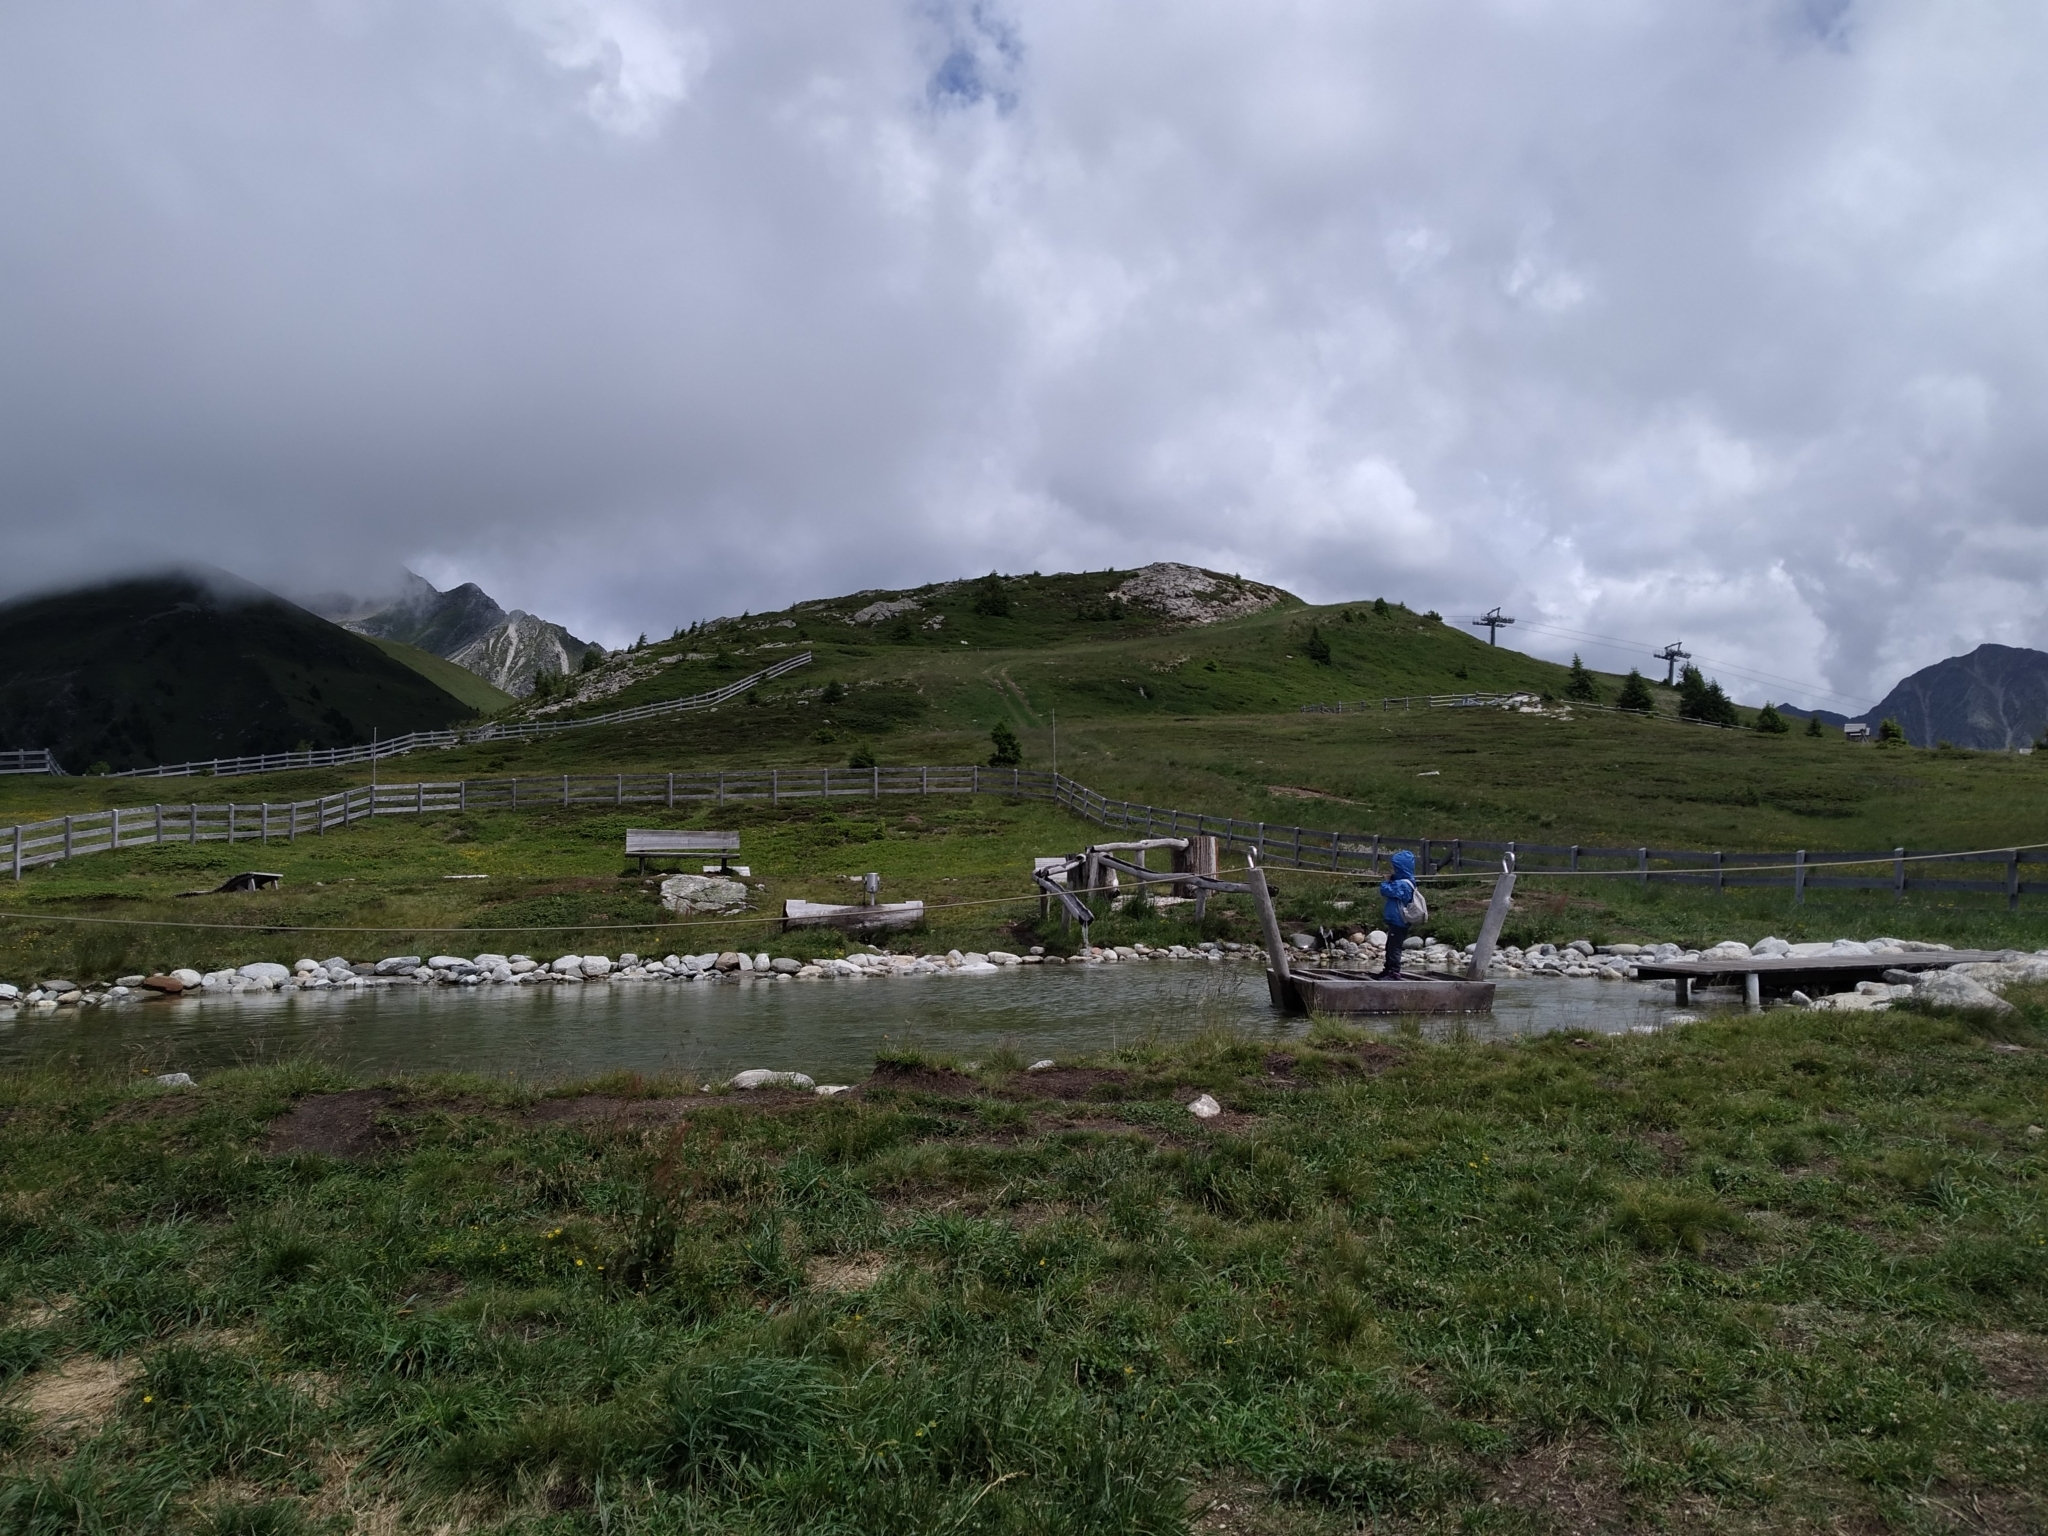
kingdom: Animalia
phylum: Chordata
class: Amphibia
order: Anura
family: Bufonidae
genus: Bufo
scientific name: Bufo bufo
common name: Common toad
